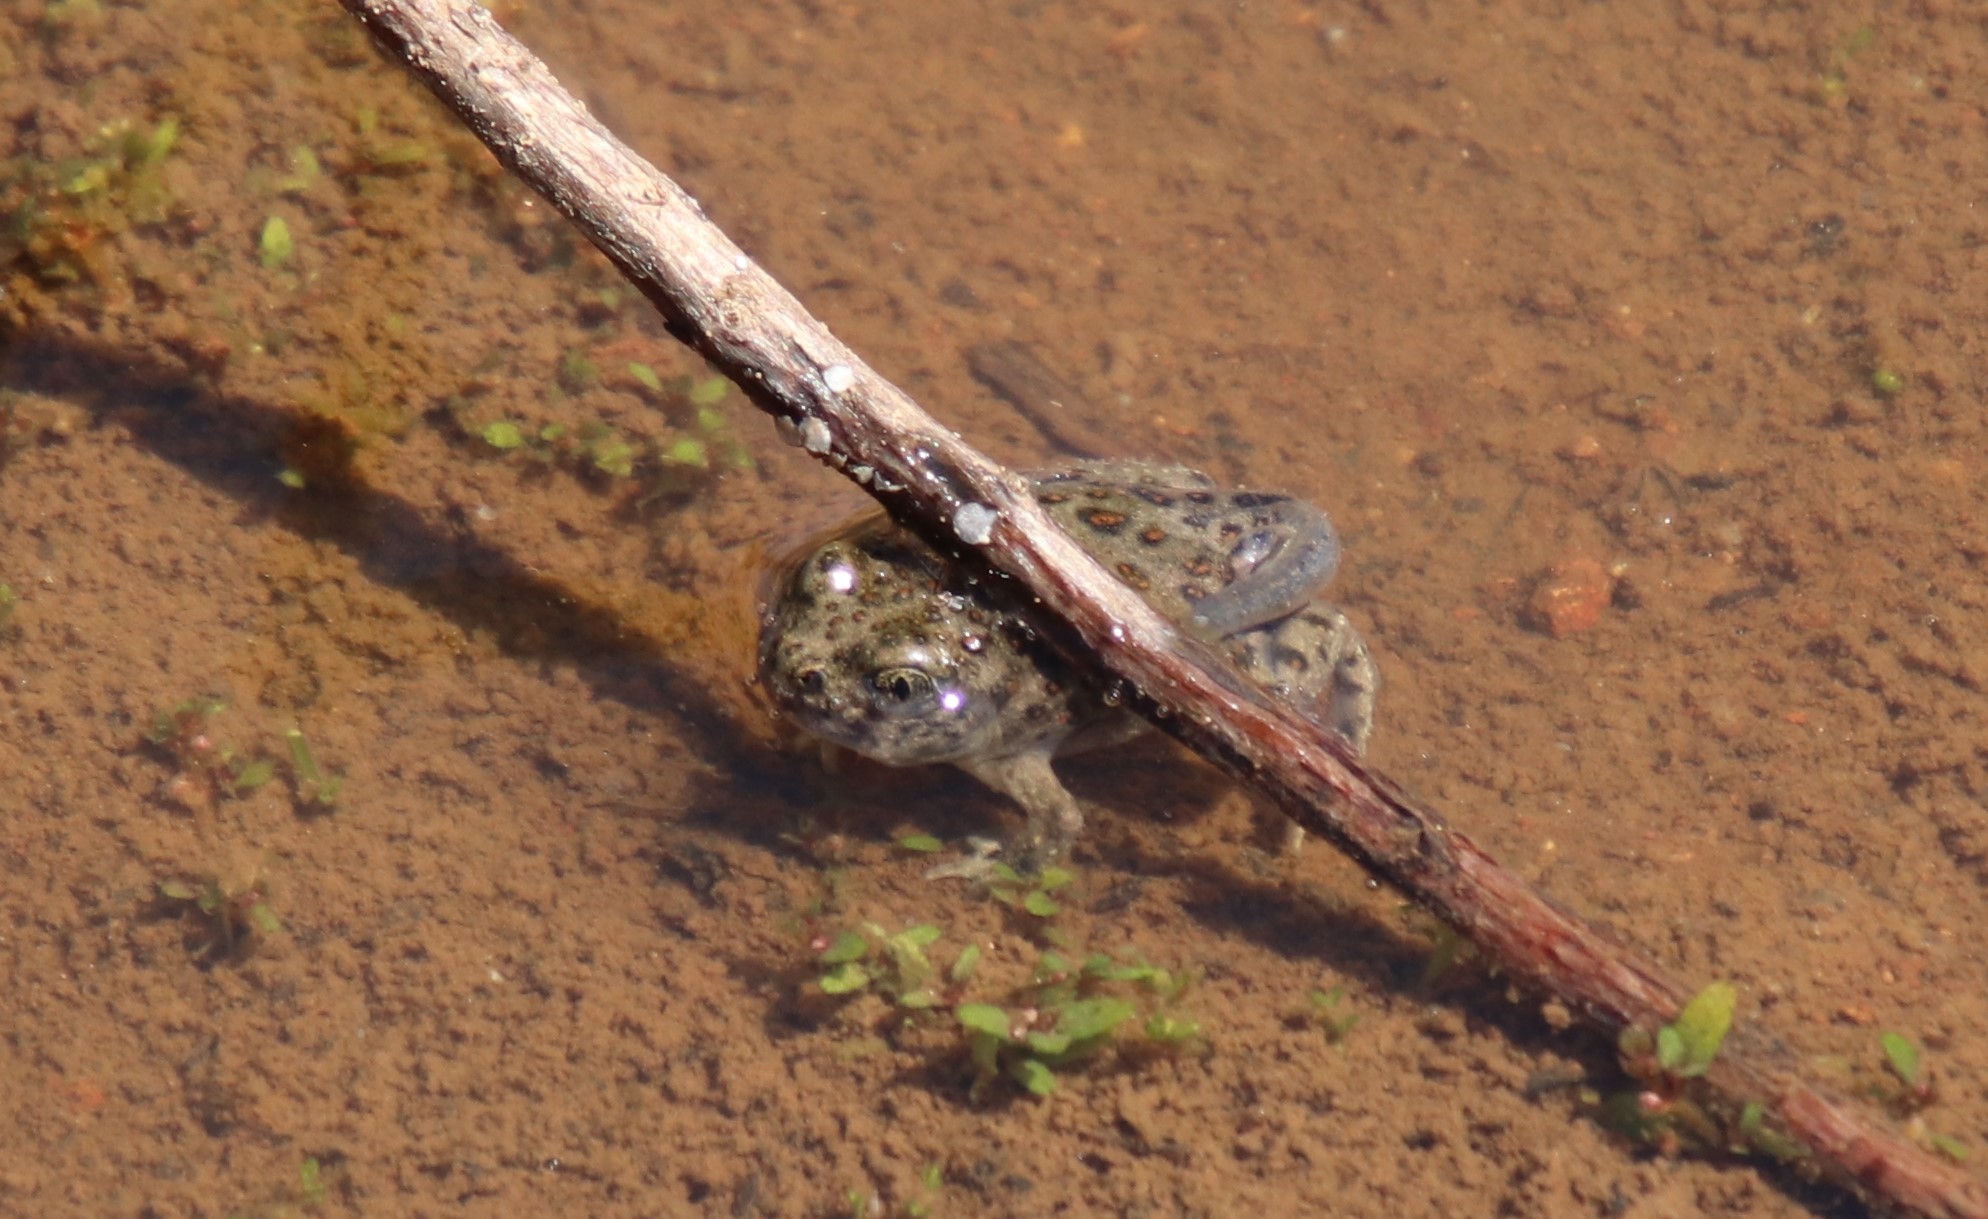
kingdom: Animalia
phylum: Chordata
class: Amphibia
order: Anura
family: Scaphiopodidae
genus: Spea
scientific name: Spea hammondii
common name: Western spadefoot toad
